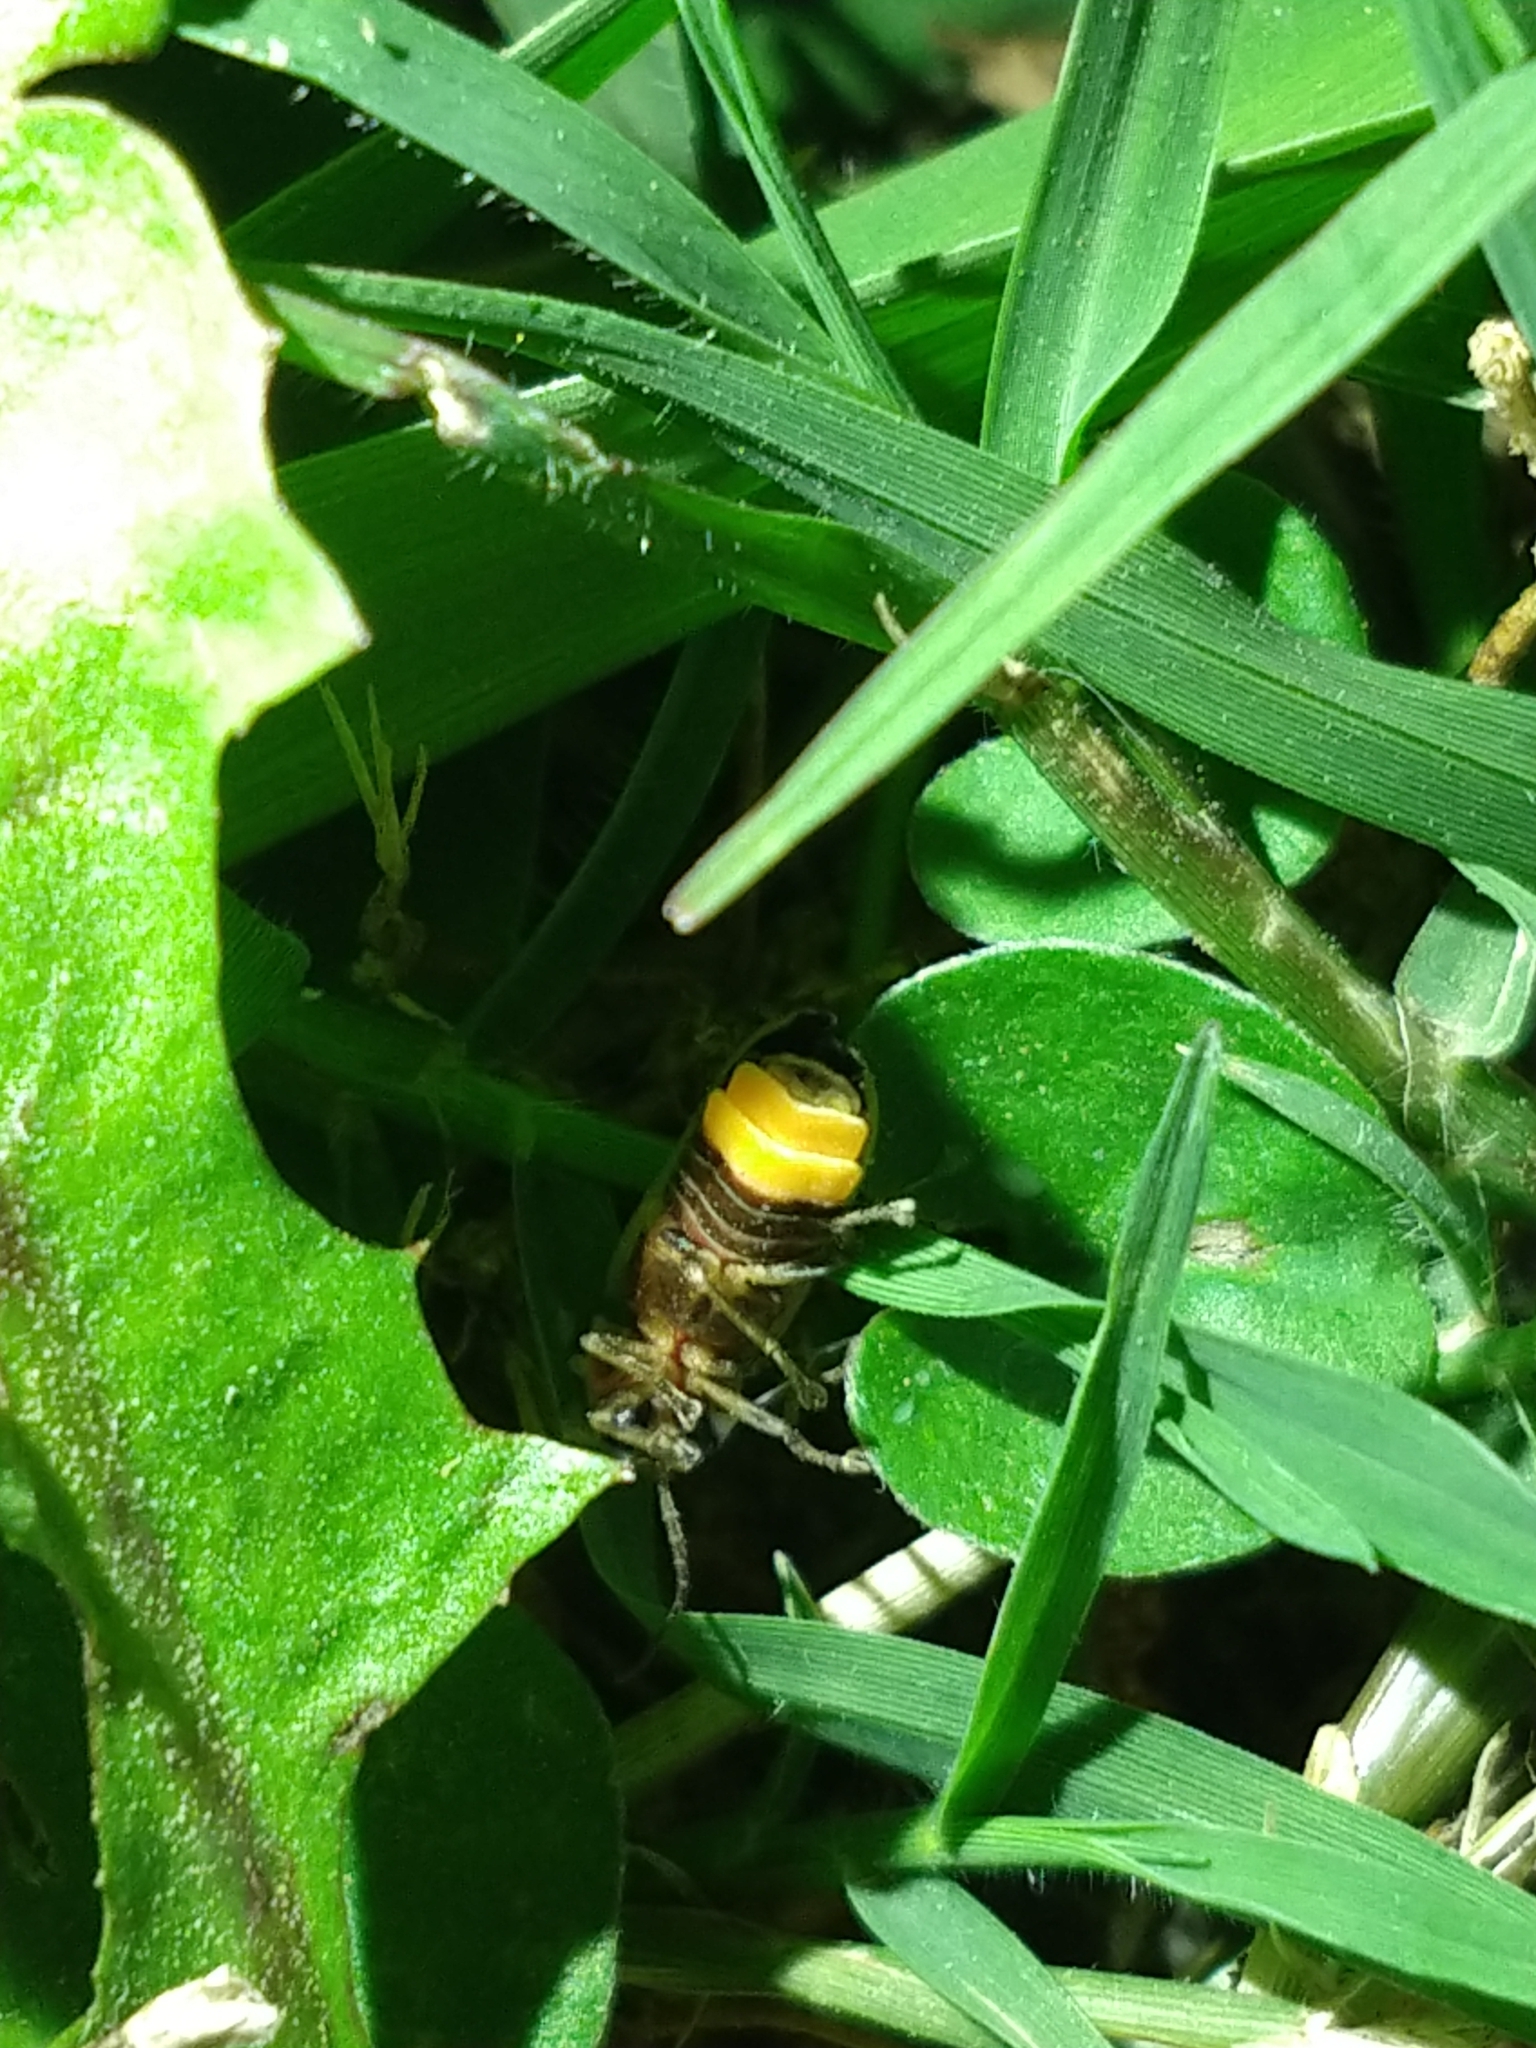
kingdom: Animalia
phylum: Arthropoda
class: Insecta
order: Coleoptera
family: Lampyridae
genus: Photinus
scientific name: Photinus signaticollis
